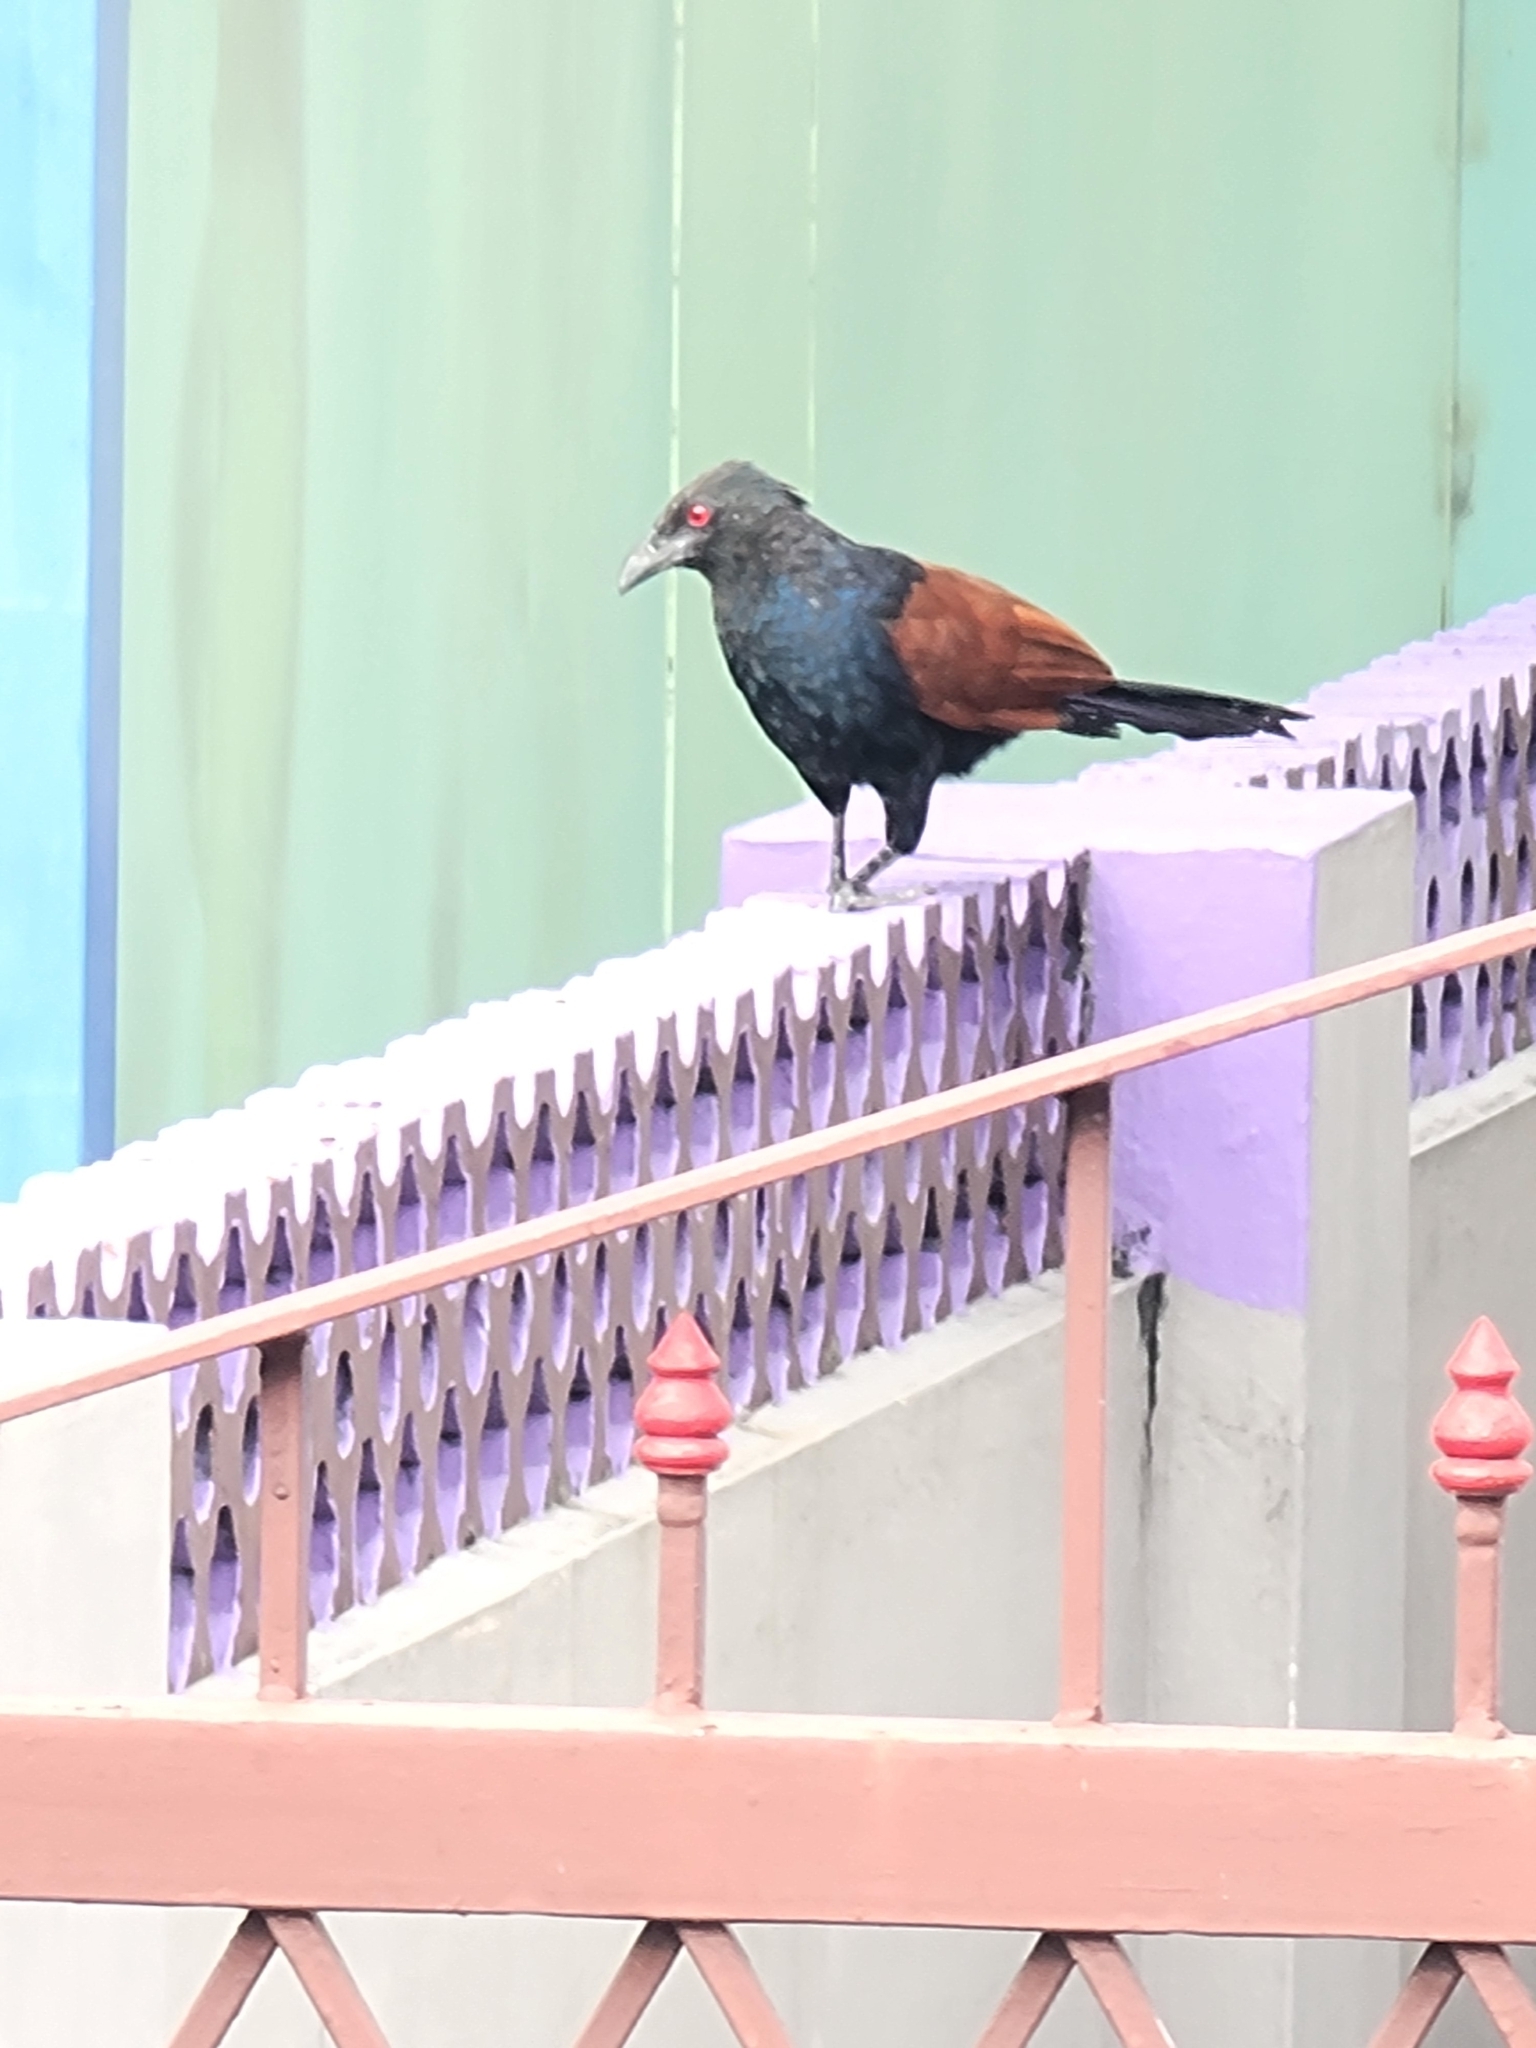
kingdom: Animalia
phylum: Chordata
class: Aves
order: Cuculiformes
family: Cuculidae
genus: Centropus
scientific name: Centropus sinensis
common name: Greater coucal
